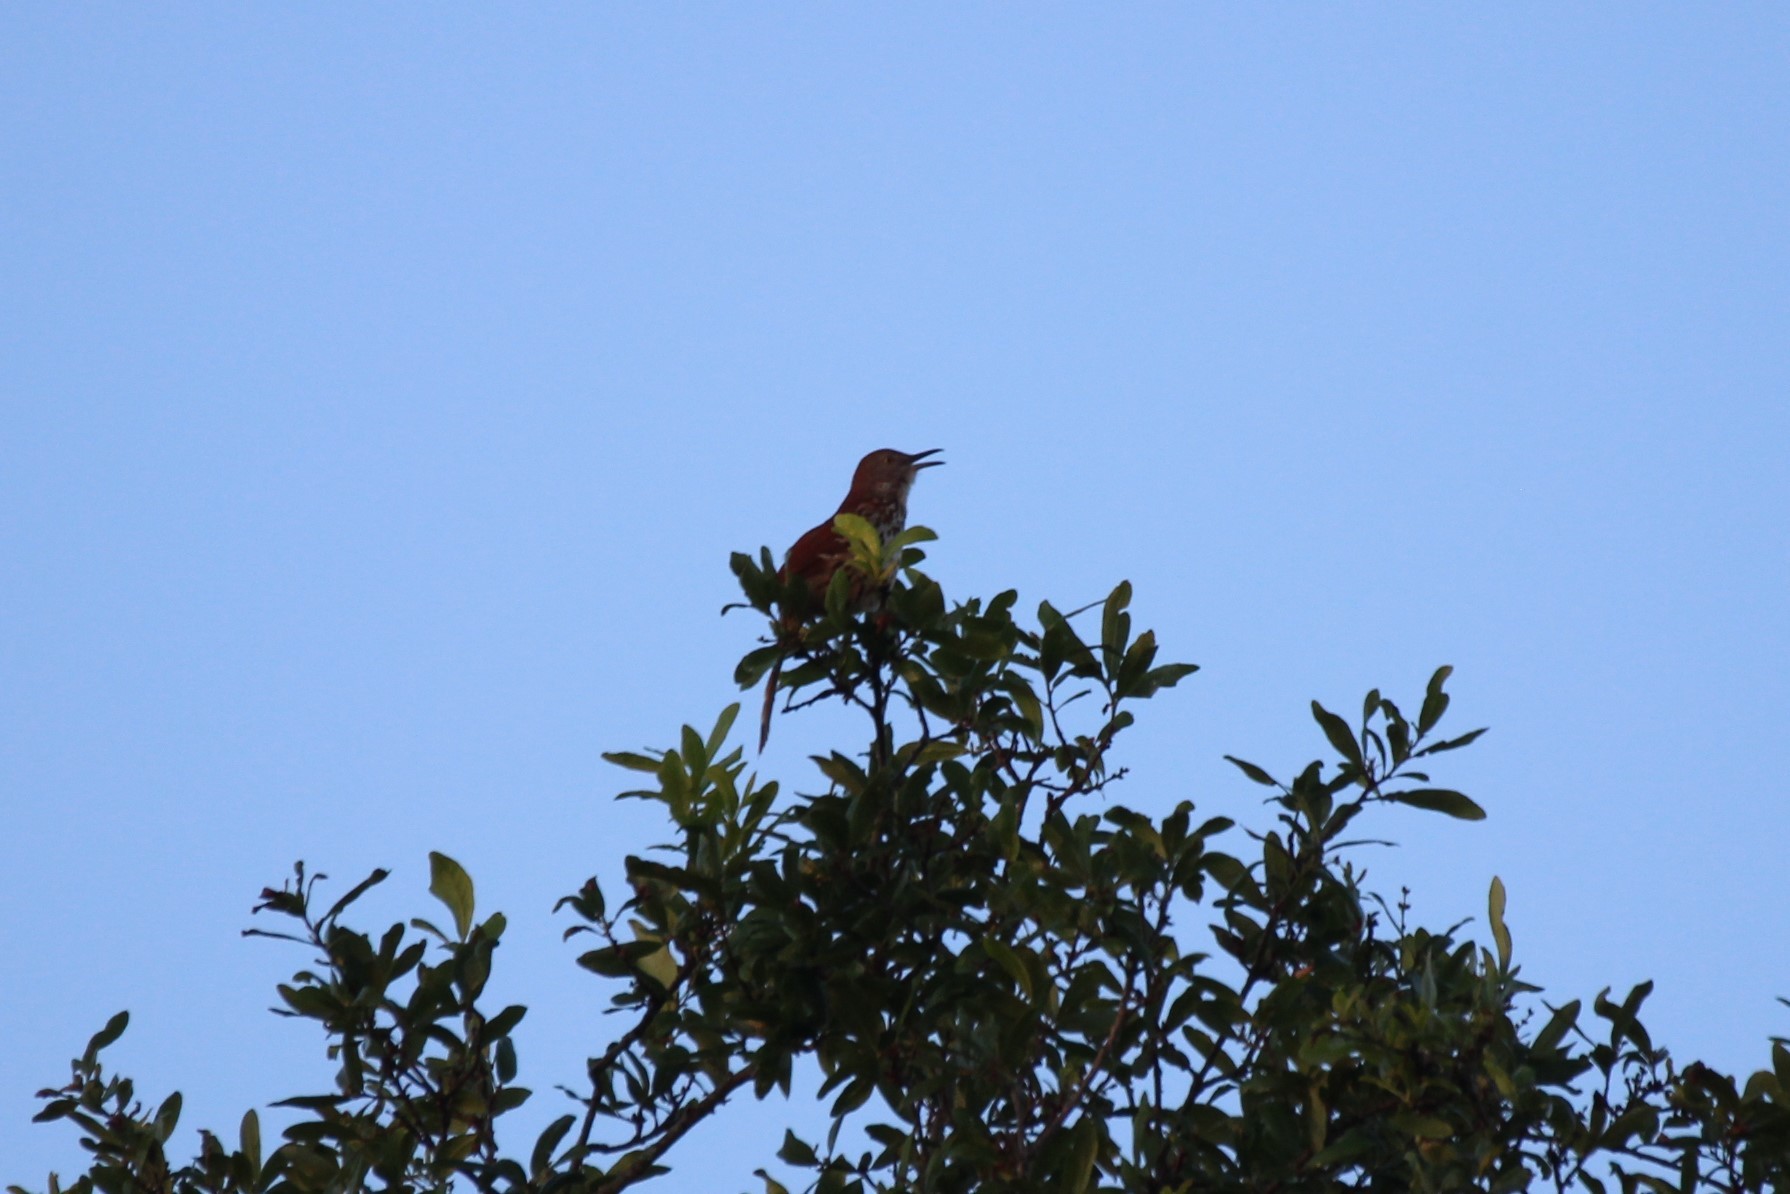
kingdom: Animalia
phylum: Chordata
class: Aves
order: Passeriformes
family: Mimidae
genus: Toxostoma
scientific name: Toxostoma rufum
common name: Brown thrasher
